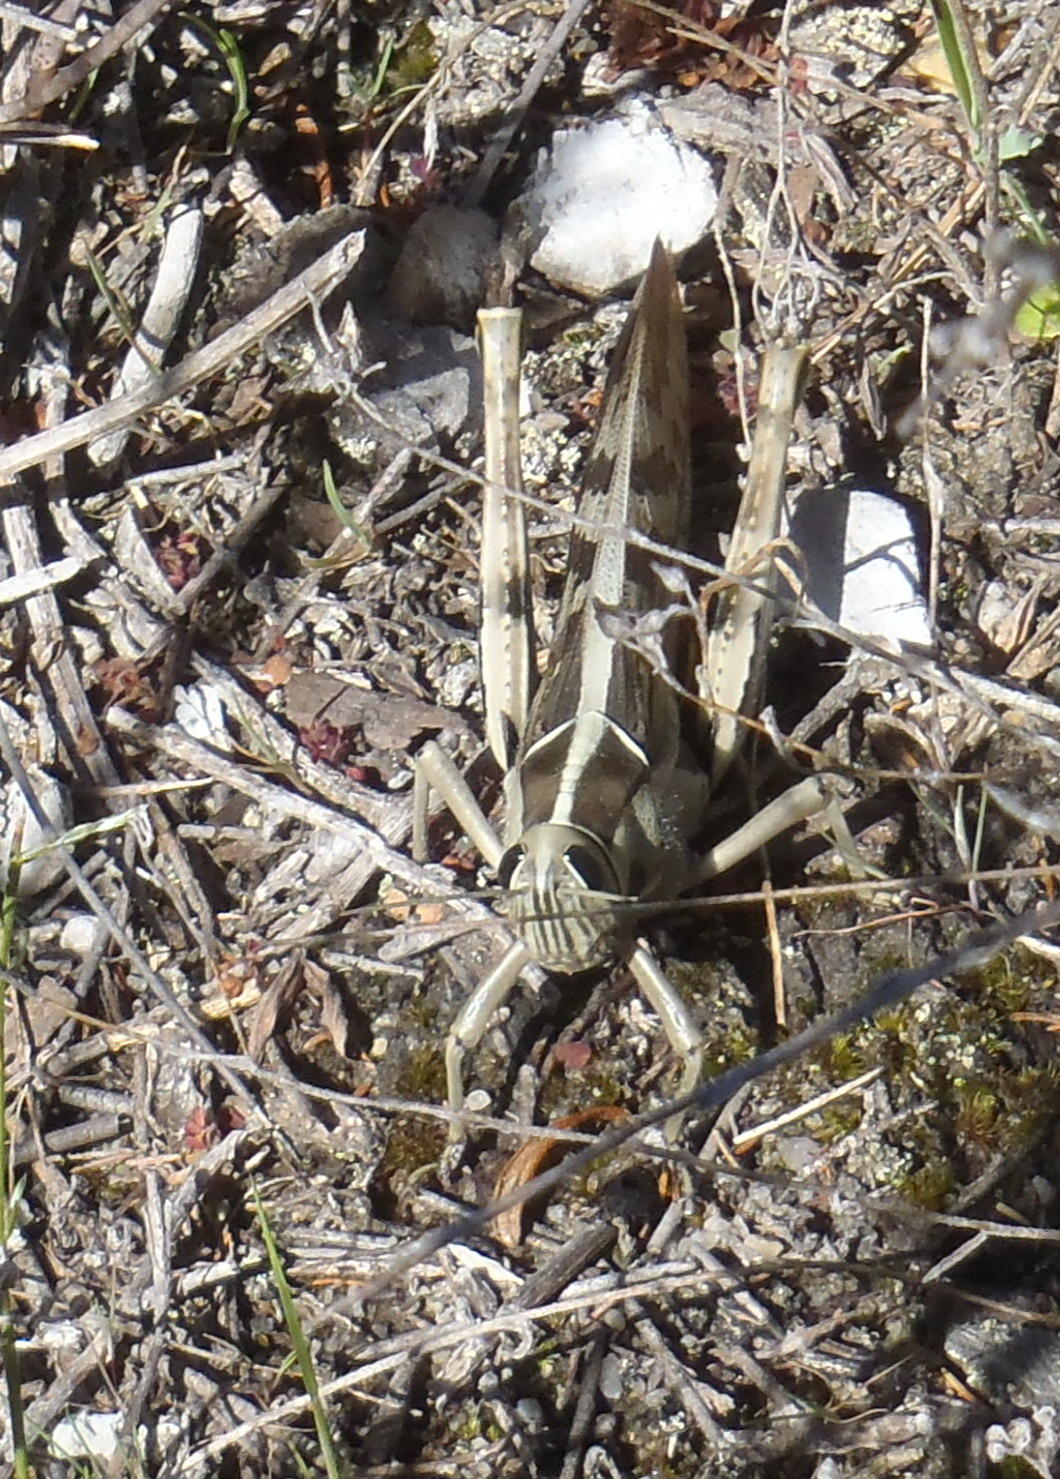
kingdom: Animalia
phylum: Arthropoda
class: Insecta
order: Orthoptera
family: Acrididae
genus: Acanthacris
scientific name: Acanthacris ruficornis
